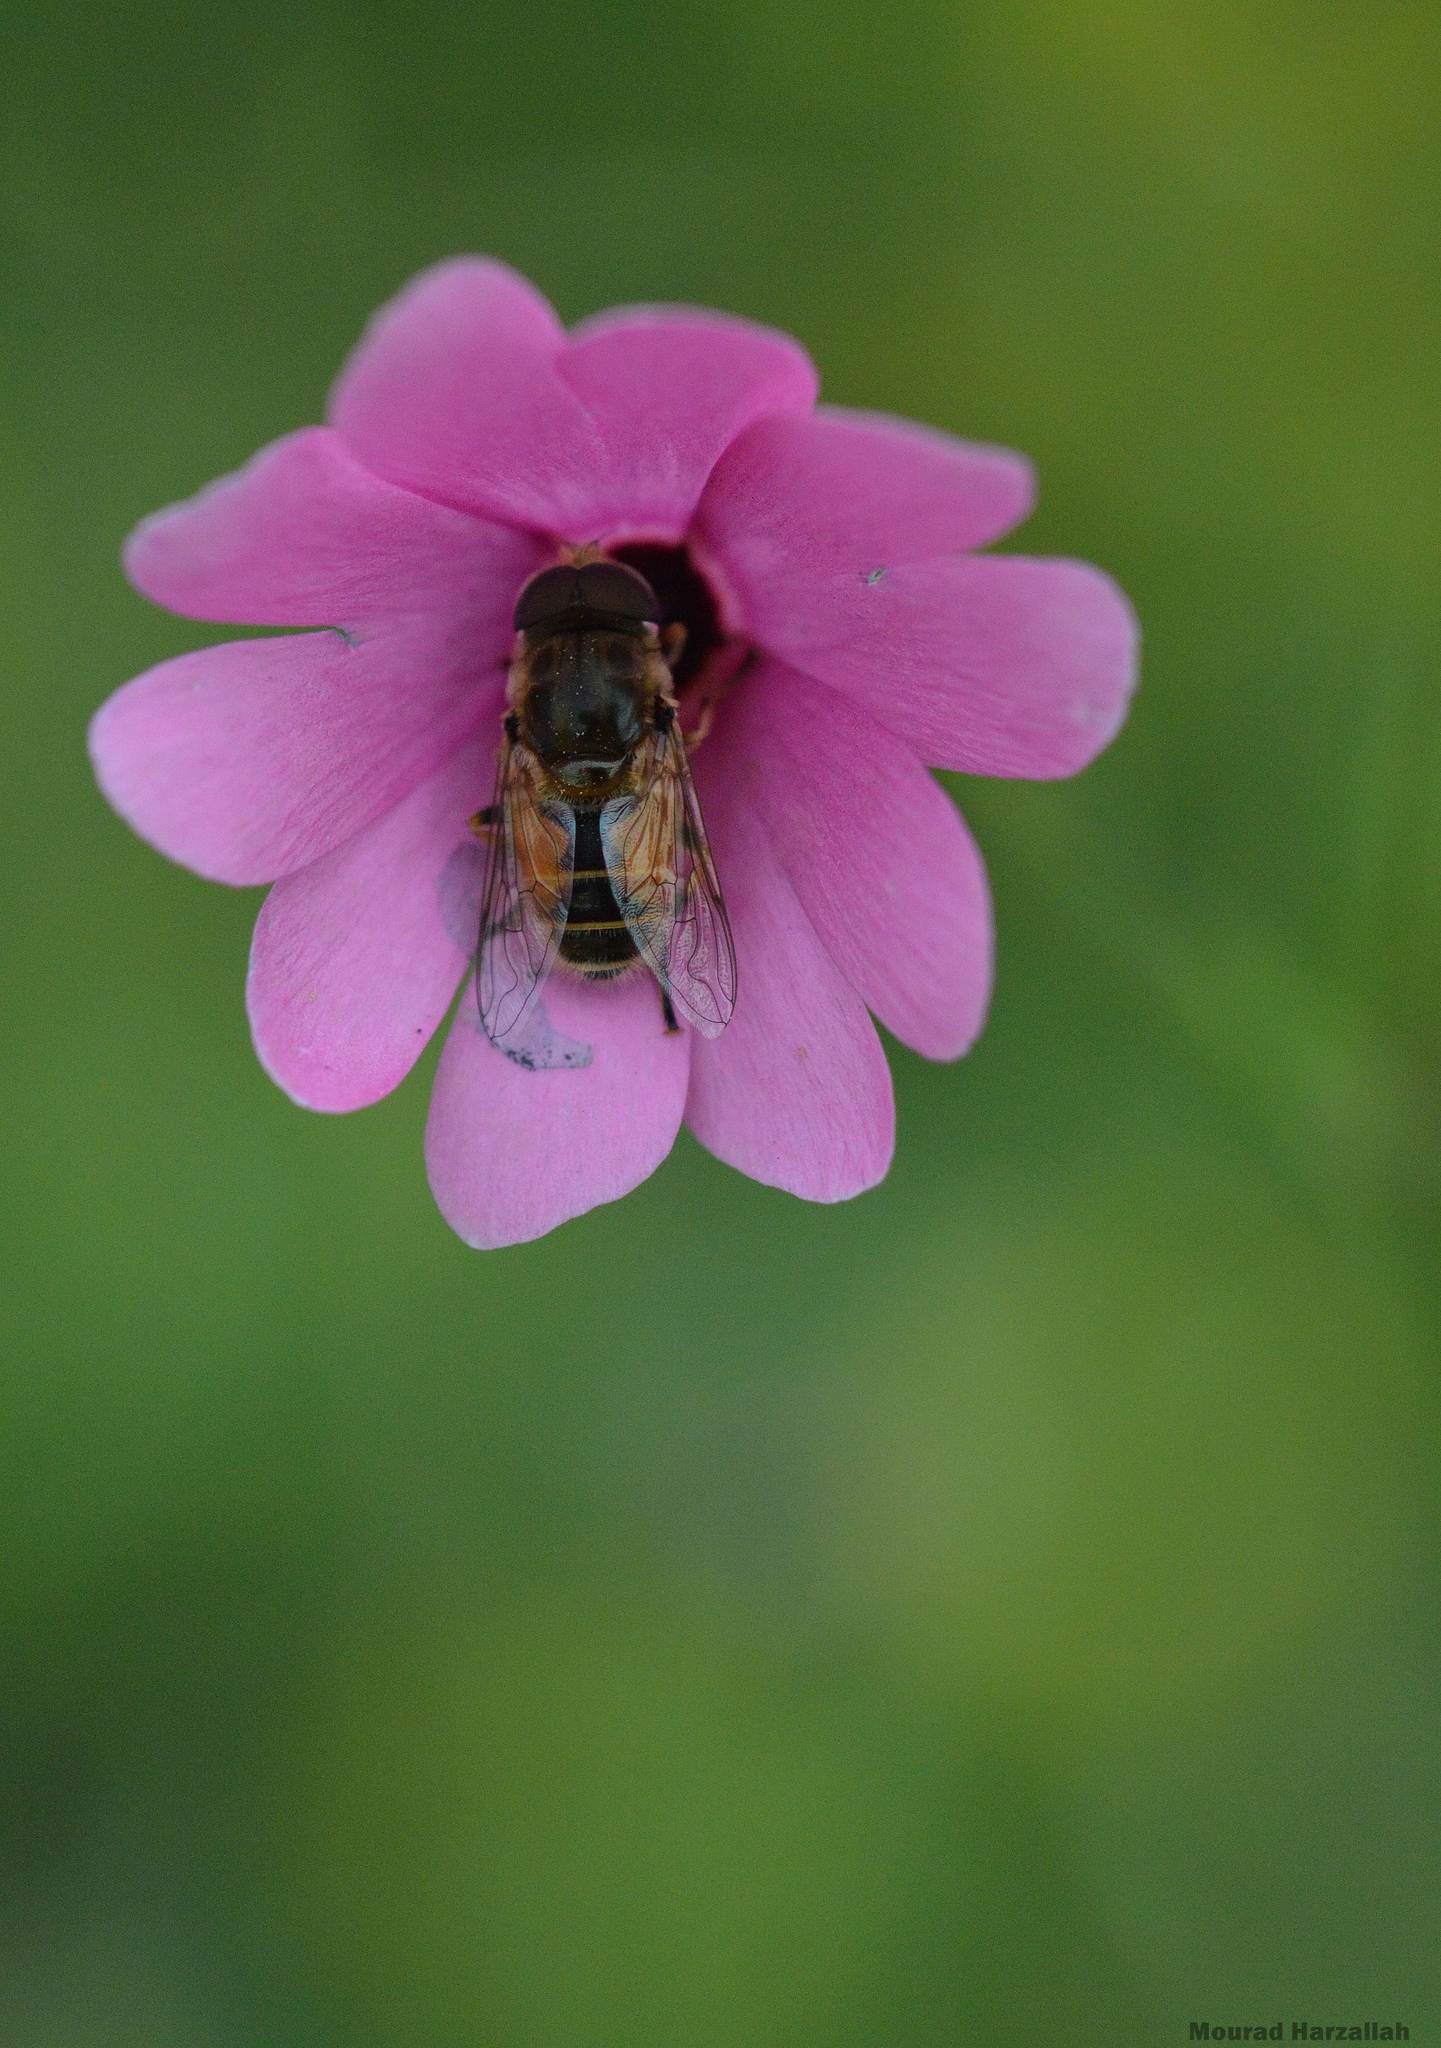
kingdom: Animalia
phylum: Arthropoda
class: Insecta
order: Diptera
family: Syrphidae
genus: Eristalis
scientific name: Eristalis arbustorum
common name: Hover fly
